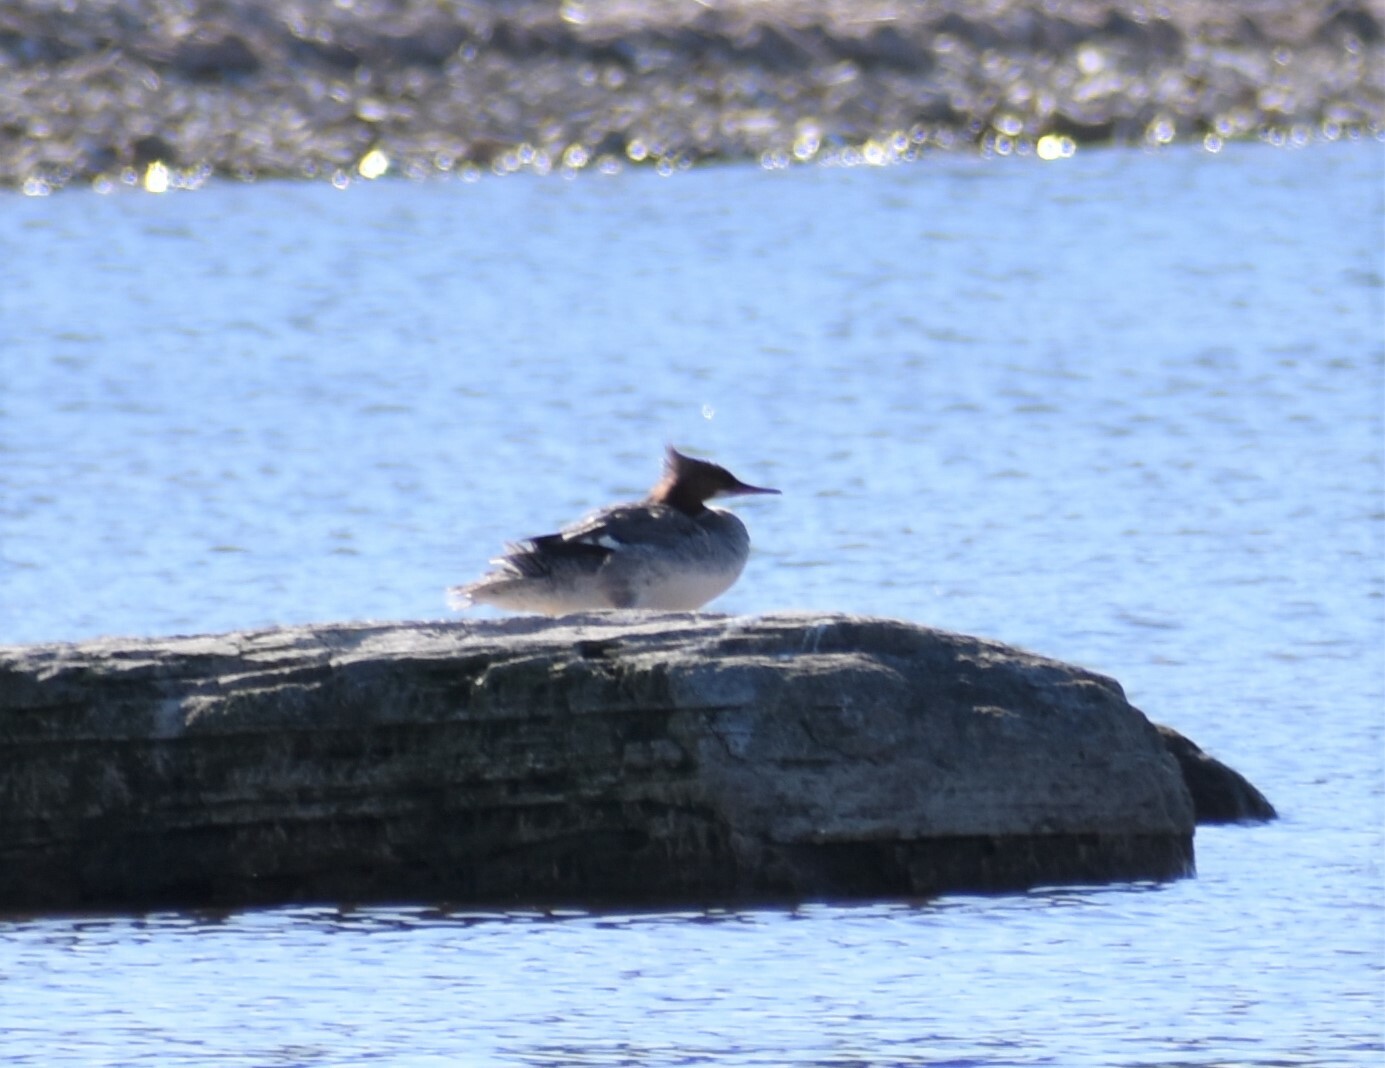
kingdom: Animalia
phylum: Chordata
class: Aves
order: Anseriformes
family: Anatidae
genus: Mergus
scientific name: Mergus merganser
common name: Common merganser
